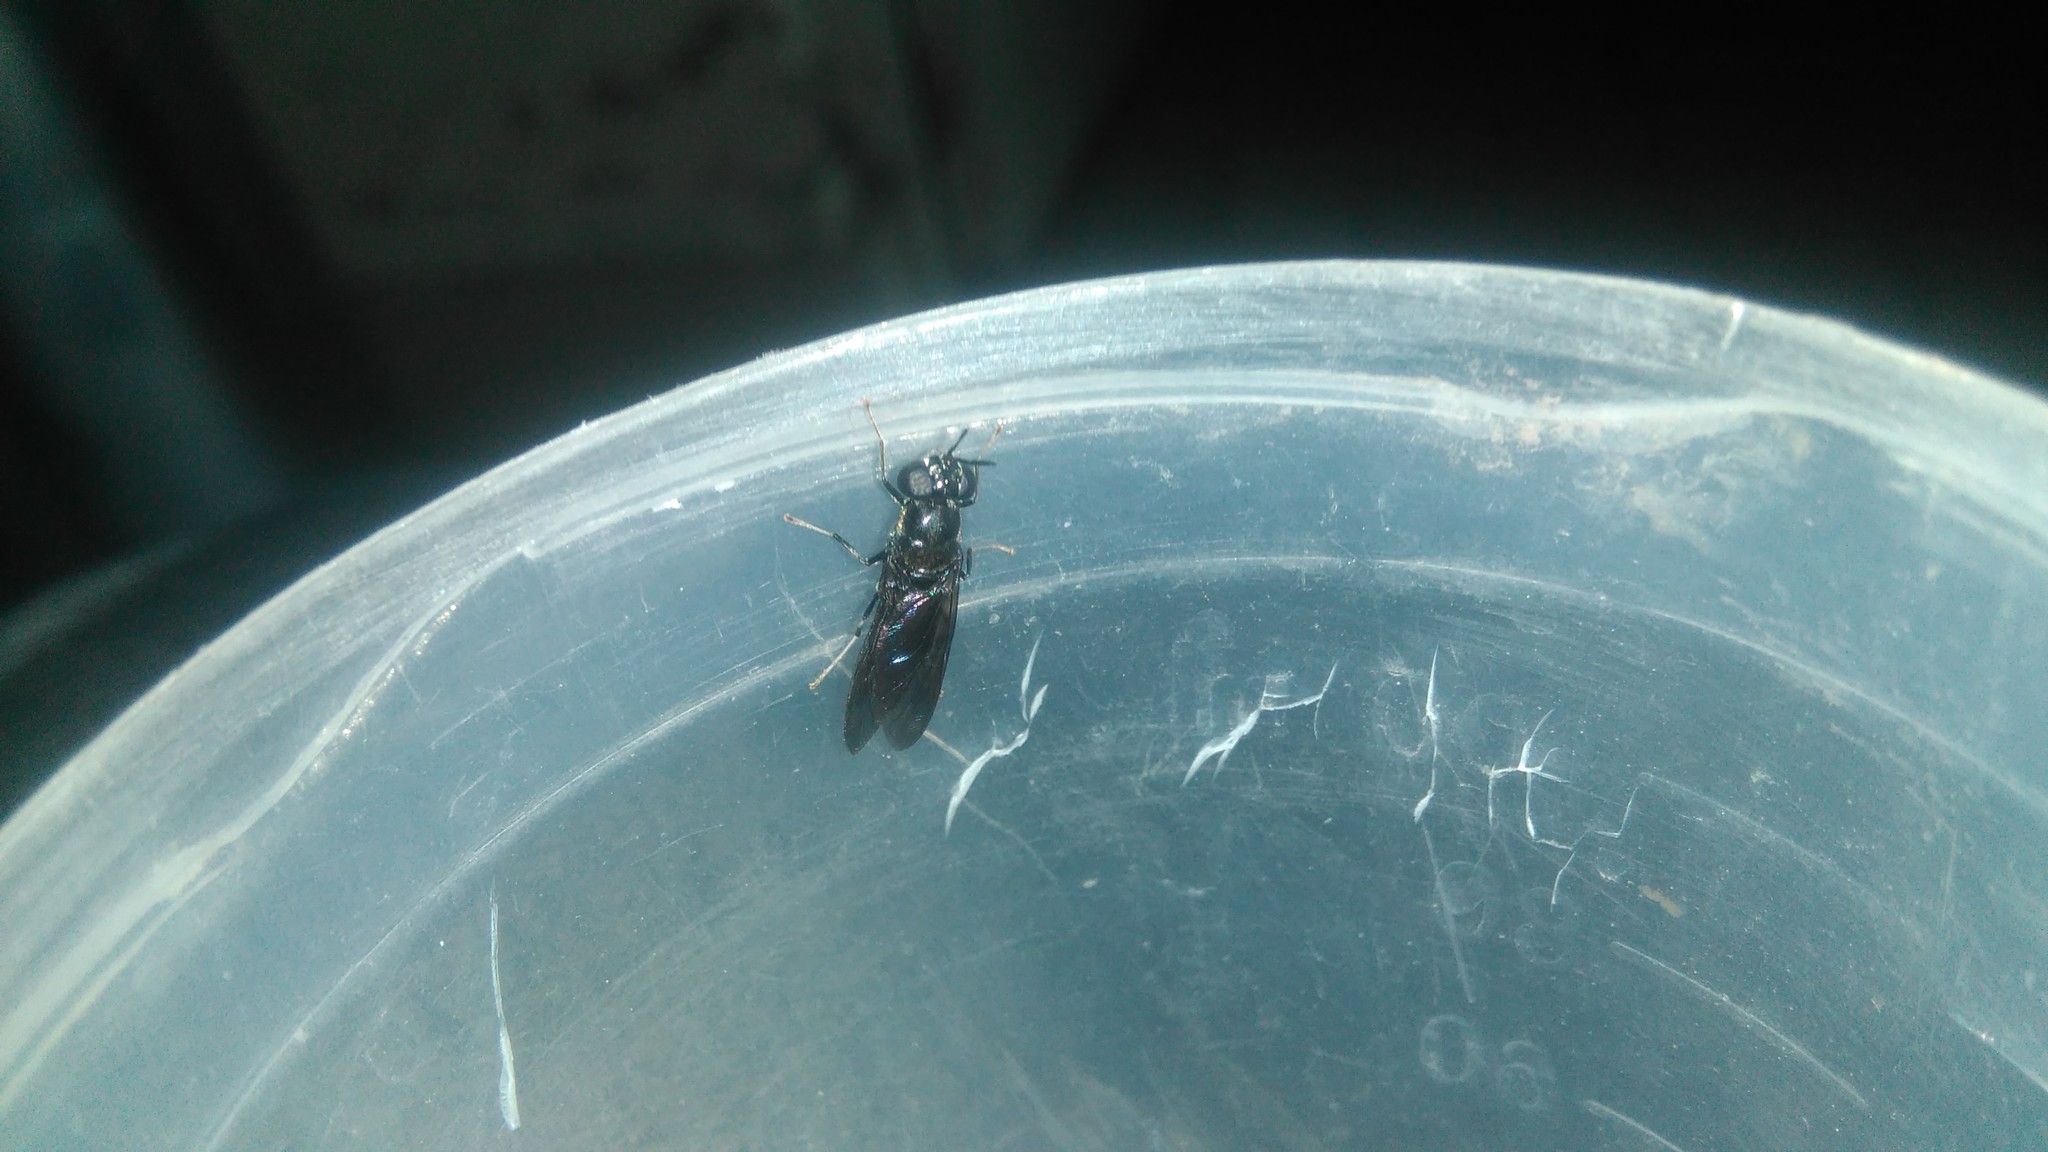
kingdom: Animalia
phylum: Arthropoda
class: Insecta
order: Diptera
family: Stratiomyidae
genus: Hermetia
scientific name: Hermetia illucens
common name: Black soldier fly
